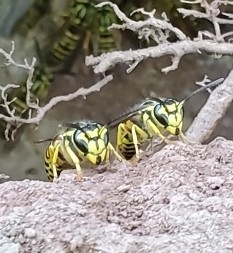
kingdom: Animalia
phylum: Arthropoda
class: Insecta
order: Hymenoptera
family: Vespidae
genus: Vespula
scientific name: Vespula squamosa
